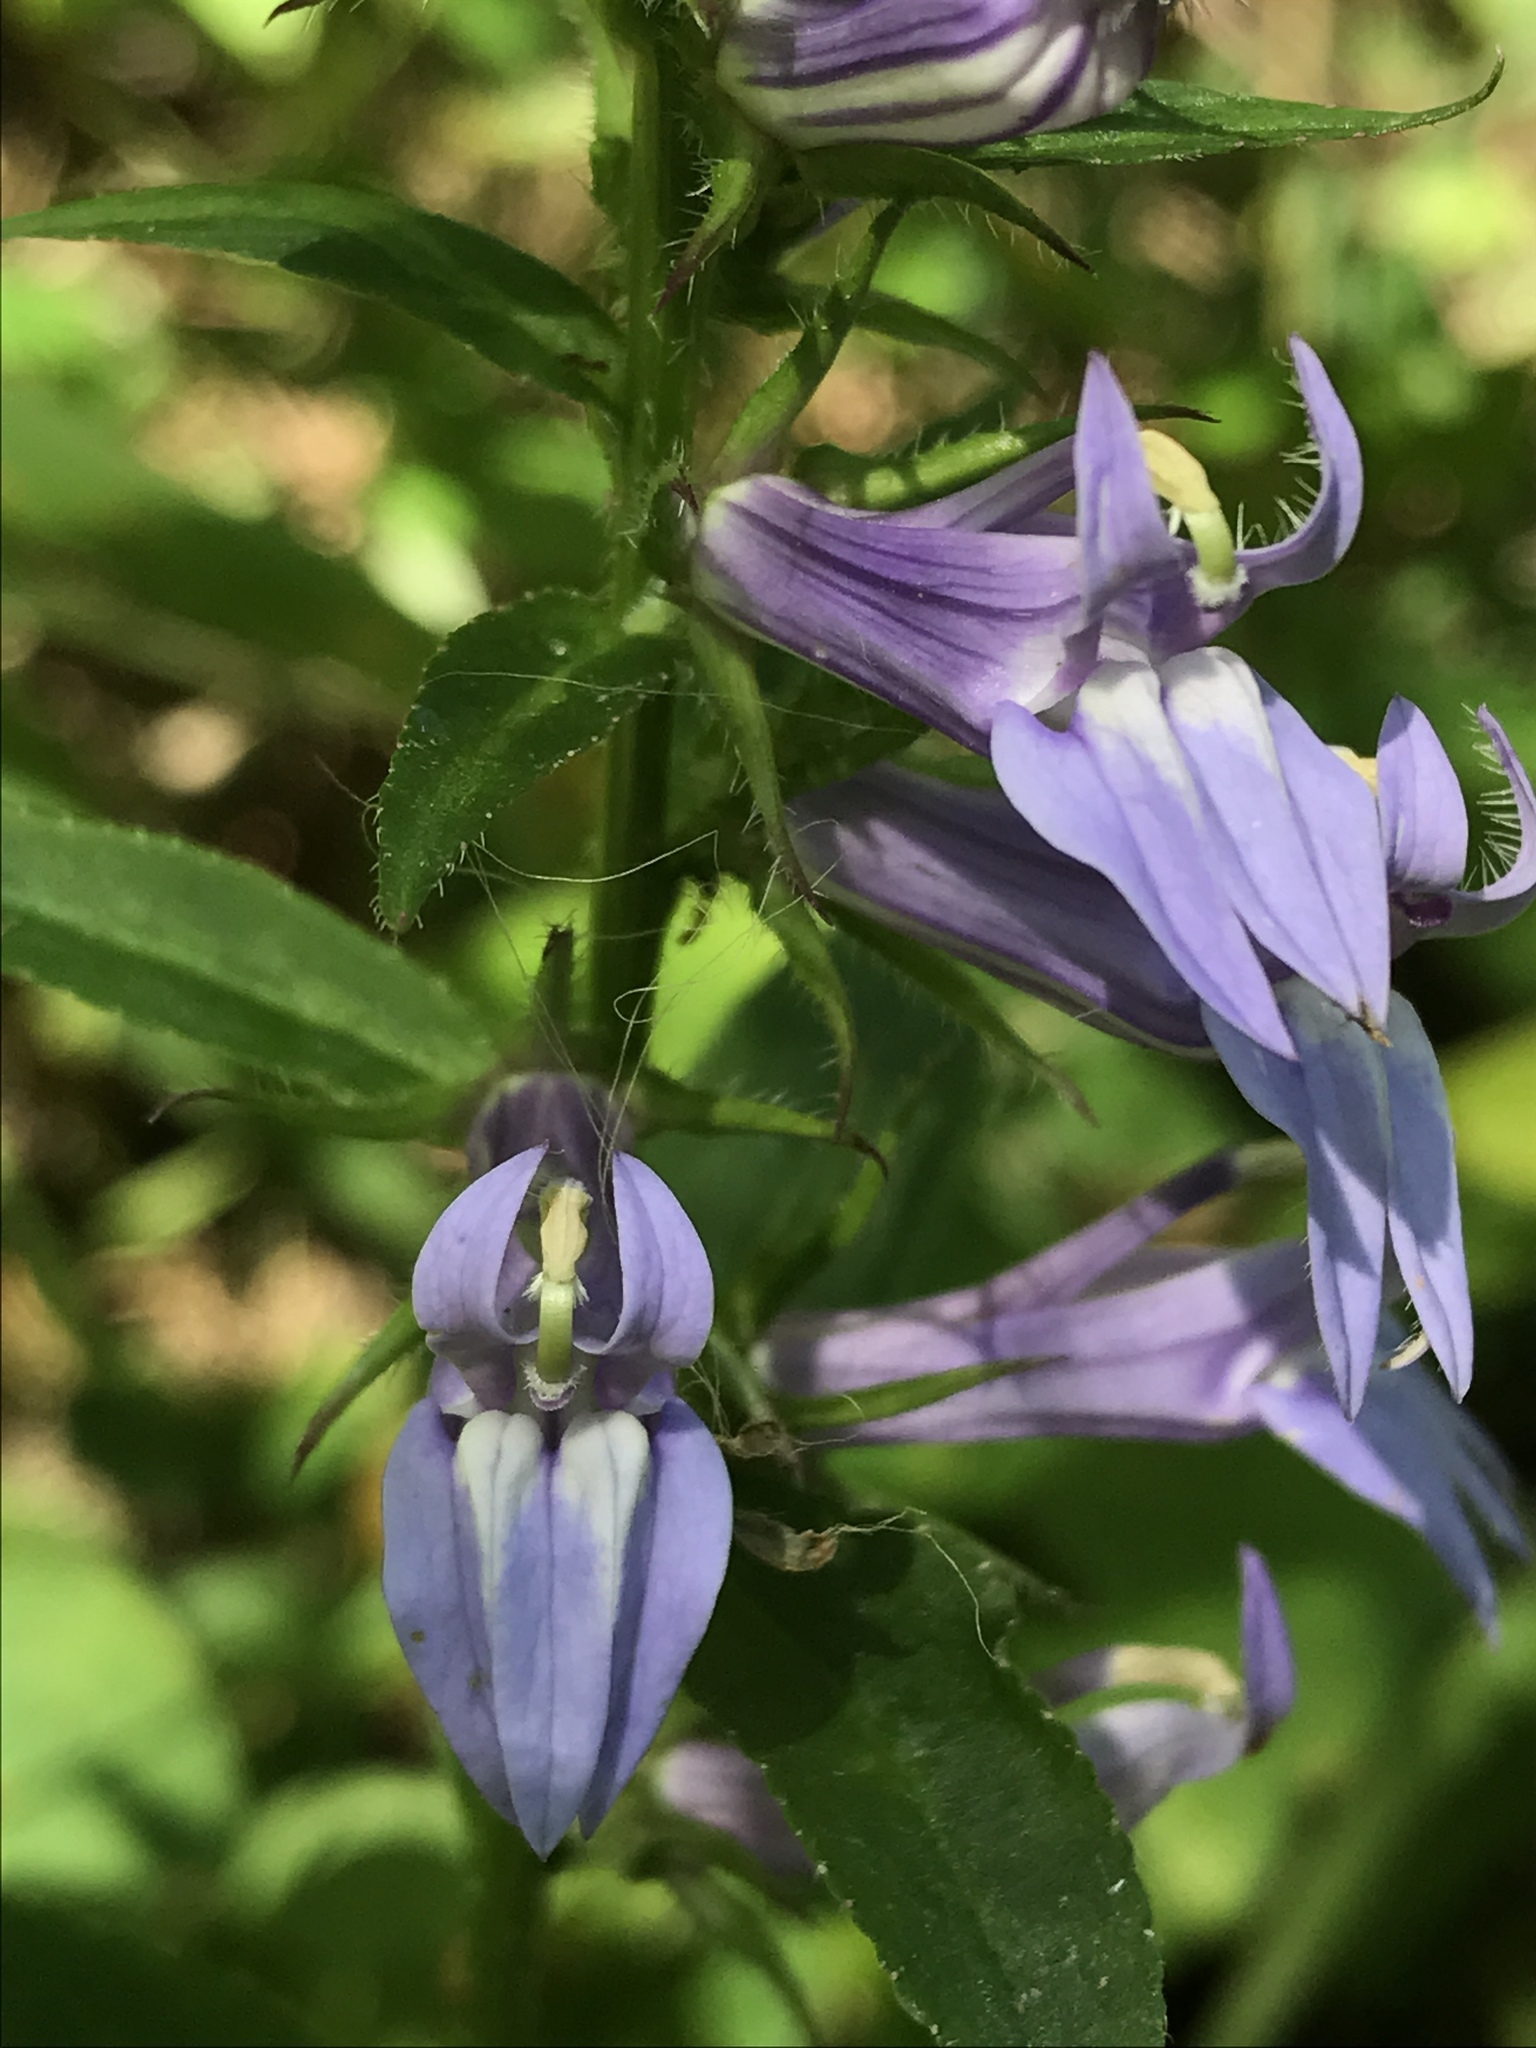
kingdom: Plantae
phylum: Tracheophyta
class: Magnoliopsida
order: Asterales
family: Campanulaceae
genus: Lobelia
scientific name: Lobelia siphilitica
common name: Great lobelia
